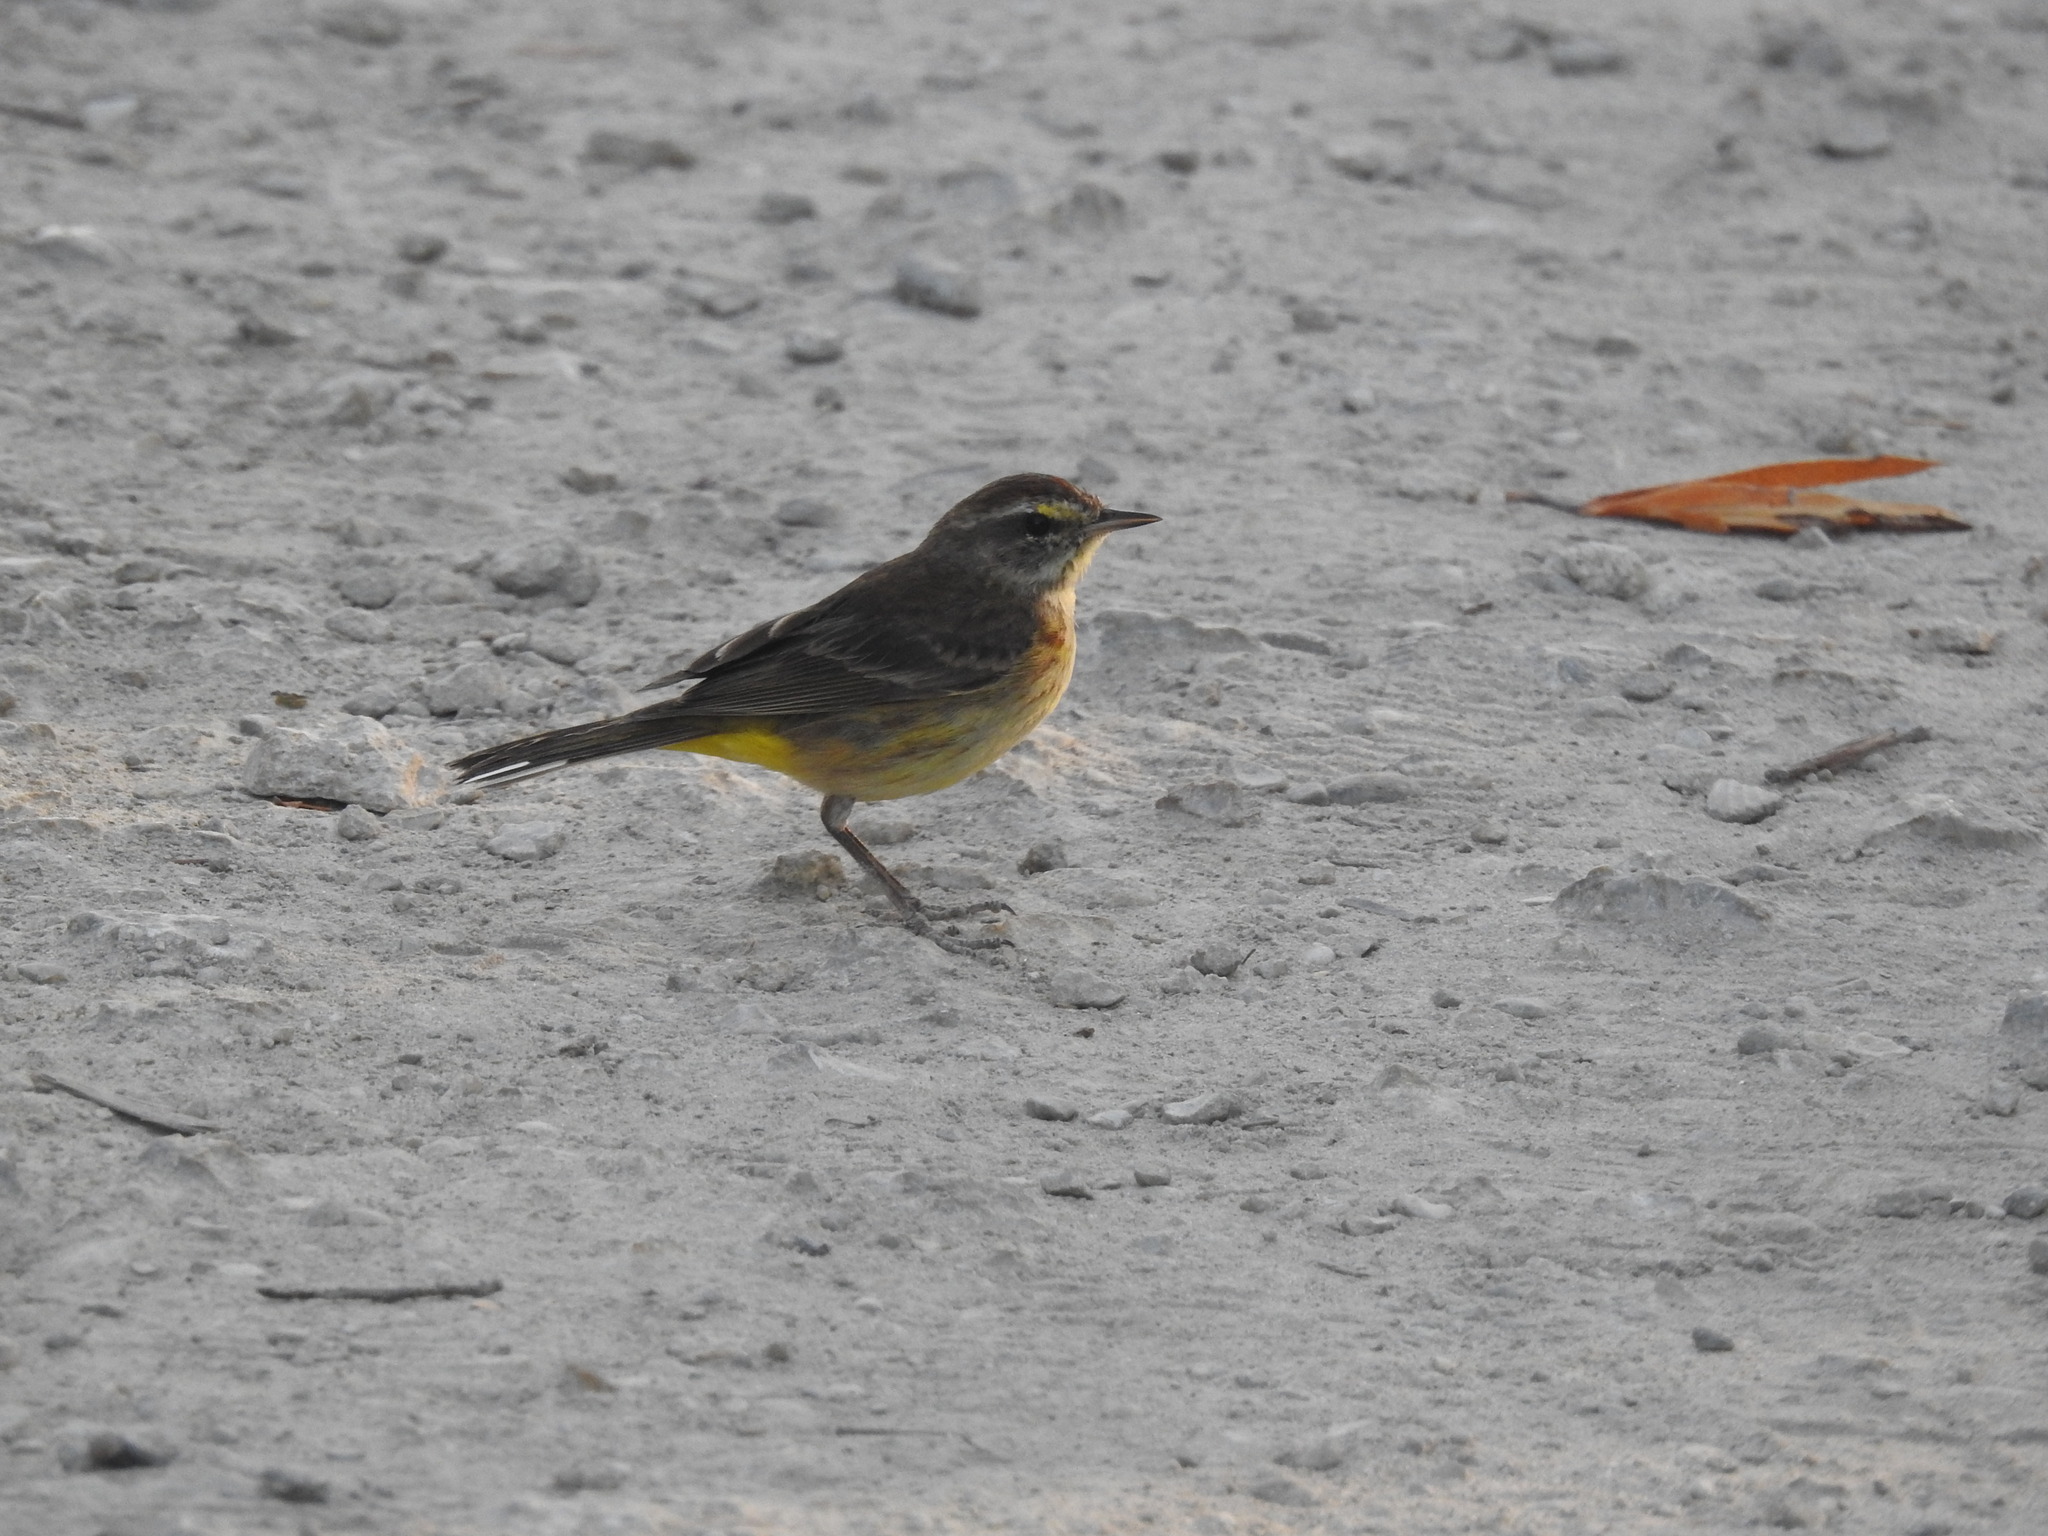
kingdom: Animalia
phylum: Chordata
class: Aves
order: Passeriformes
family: Parulidae
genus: Setophaga
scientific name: Setophaga palmarum
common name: Palm warbler
